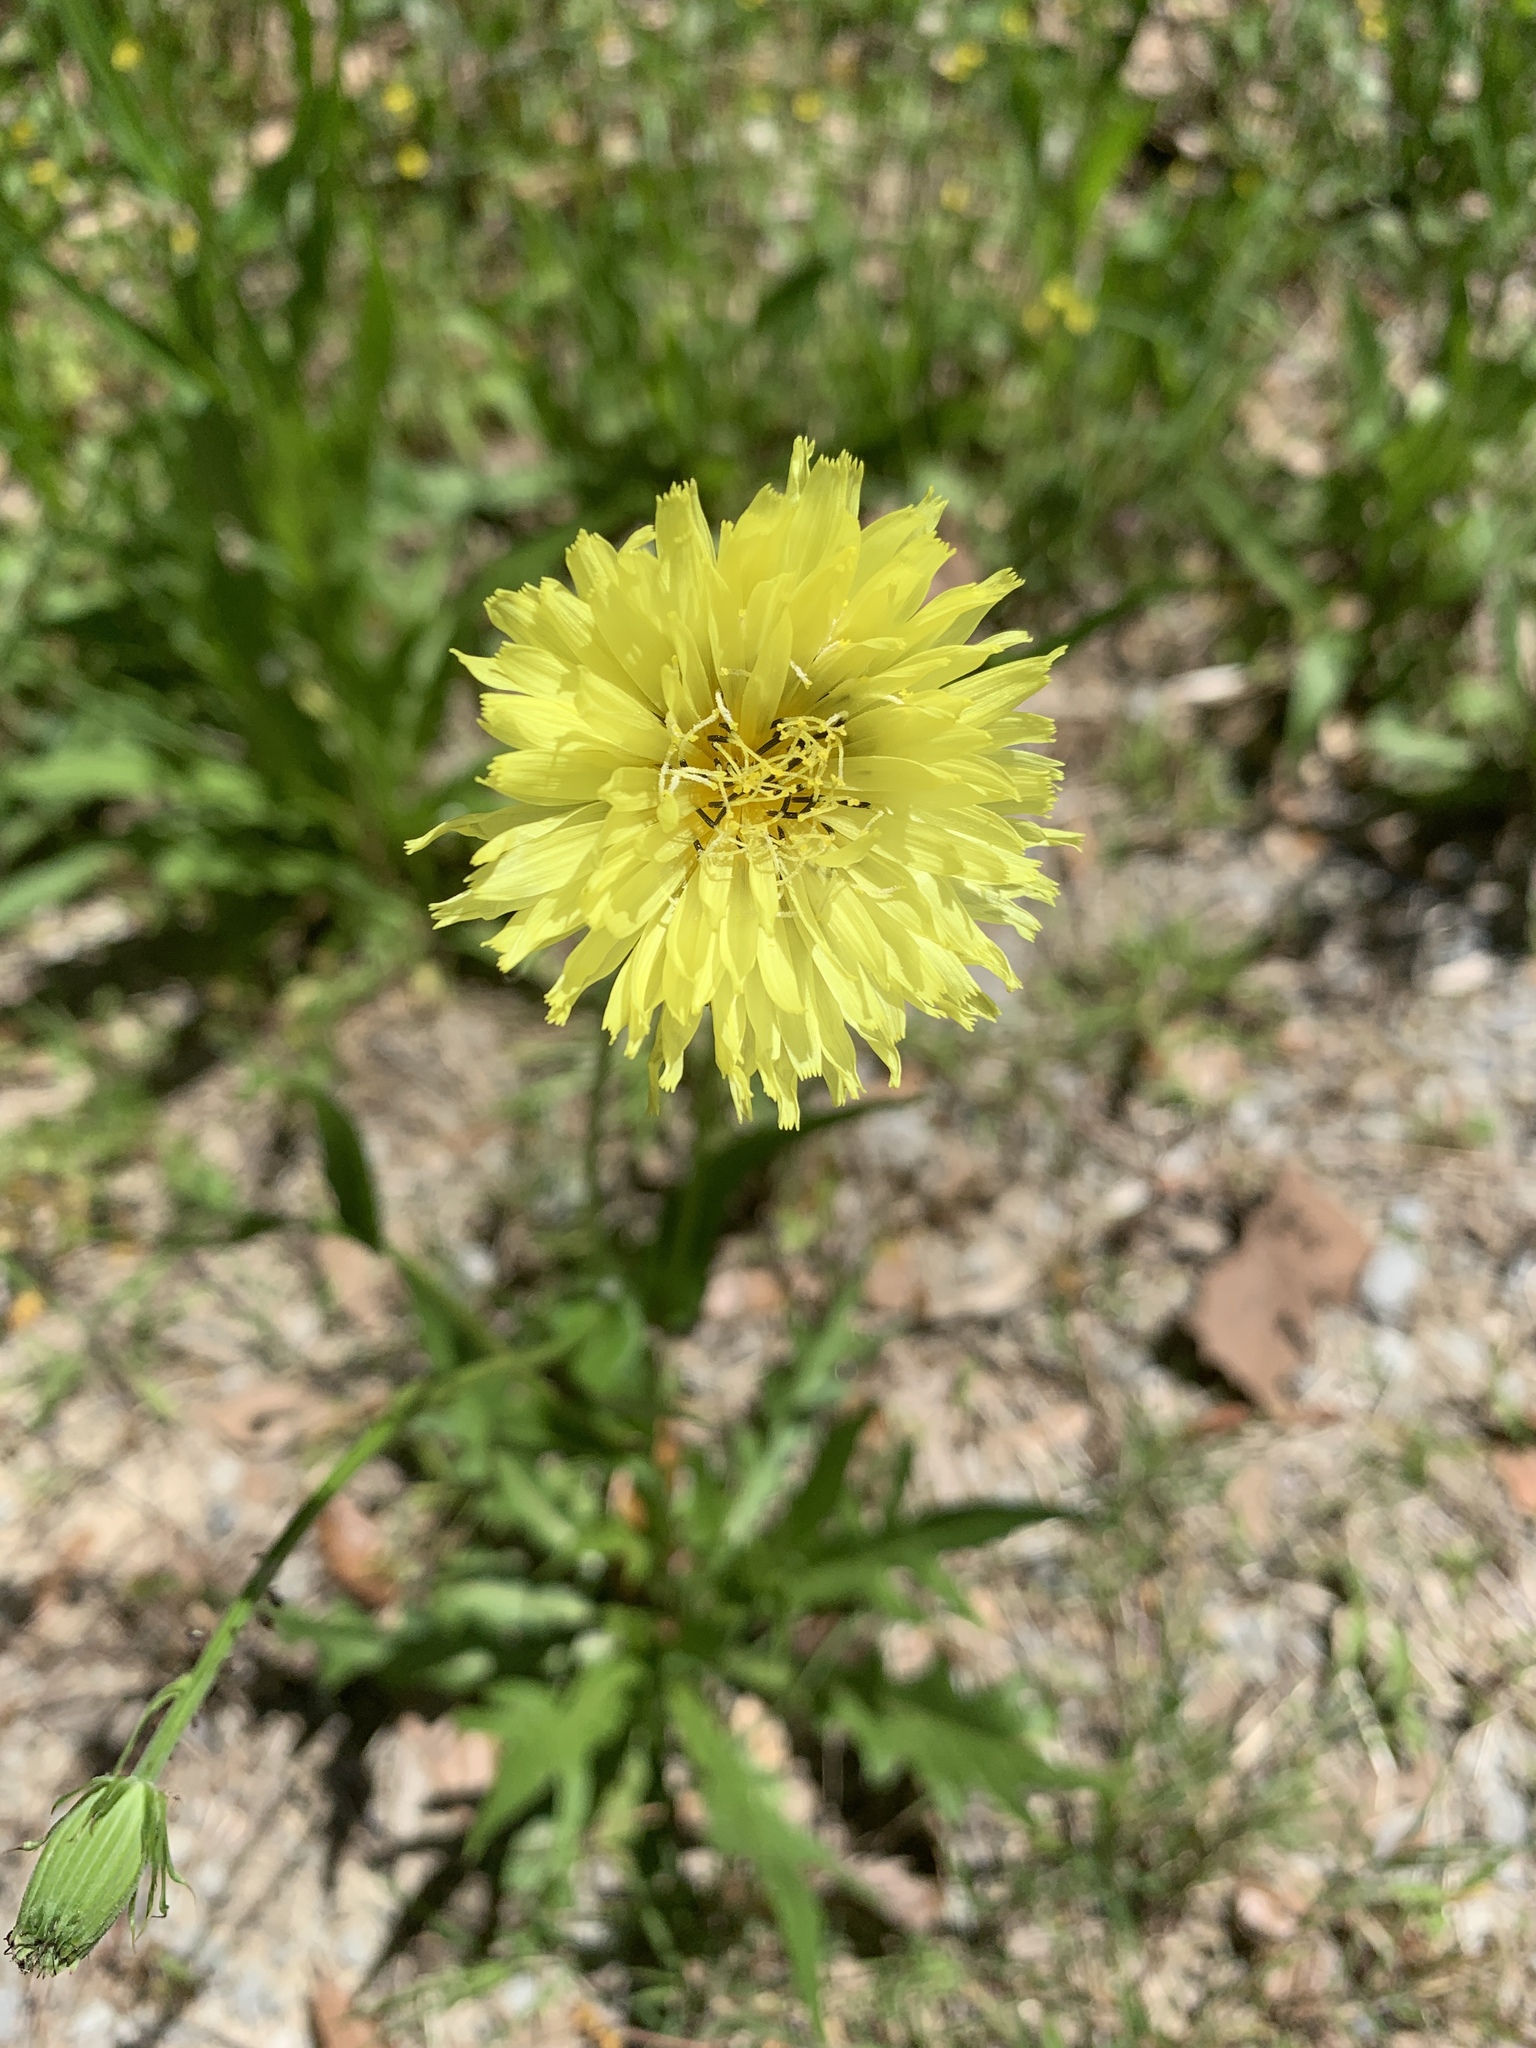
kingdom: Plantae
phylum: Tracheophyta
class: Magnoliopsida
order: Asterales
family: Asteraceae
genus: Pyrrhopappus
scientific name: Pyrrhopappus carolinianus
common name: Carolina desert-chicory
